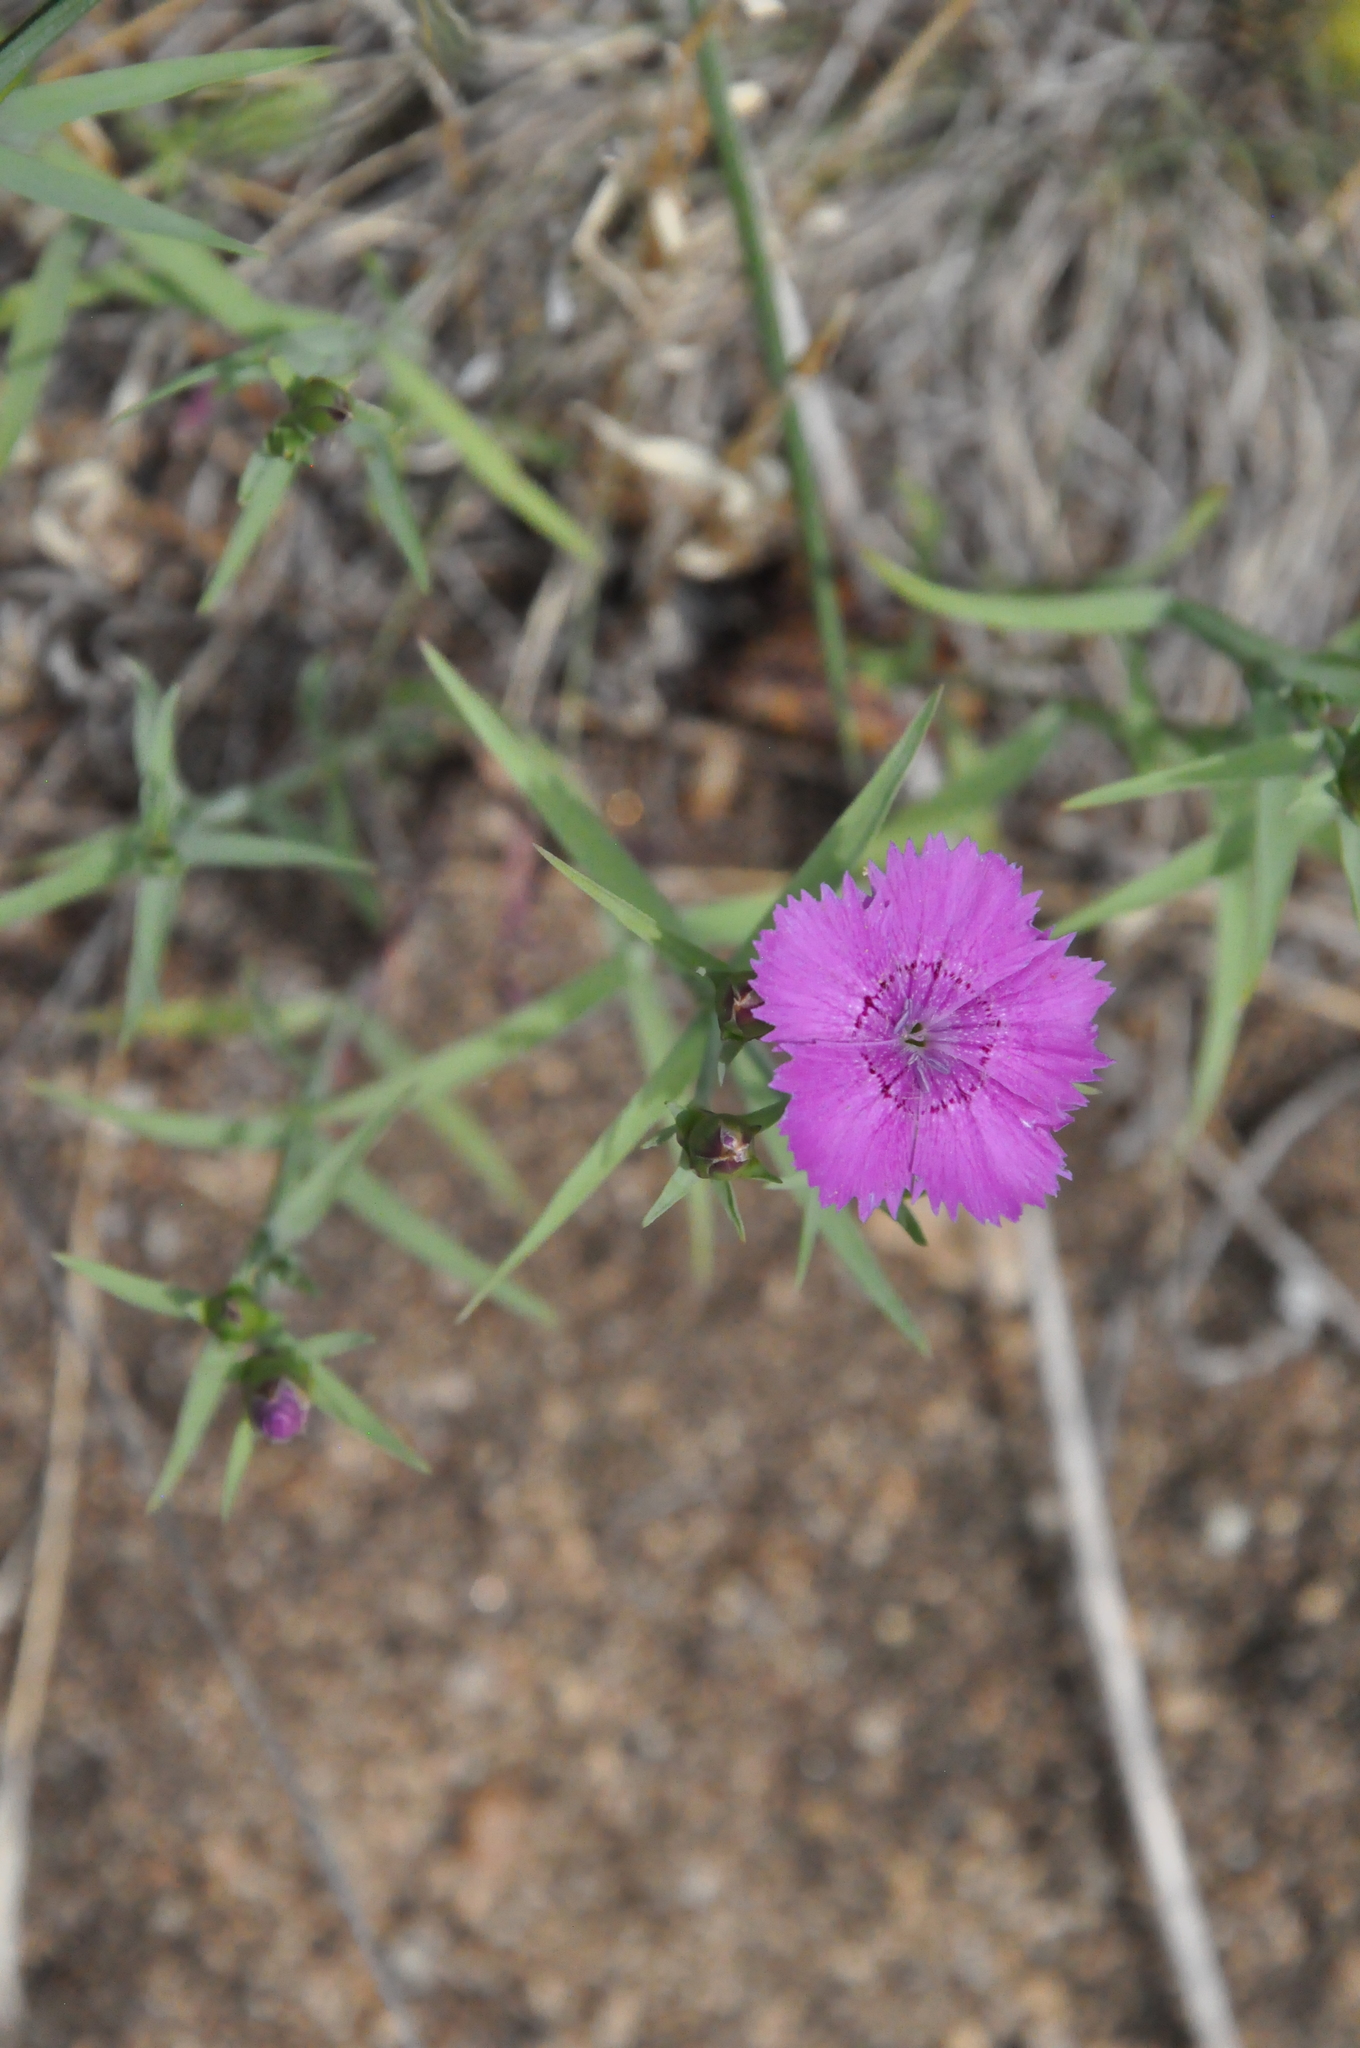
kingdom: Plantae
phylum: Tracheophyta
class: Magnoliopsida
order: Caryophyllales
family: Caryophyllaceae
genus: Dianthus
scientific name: Dianthus chinensis
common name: Rainbow pink
